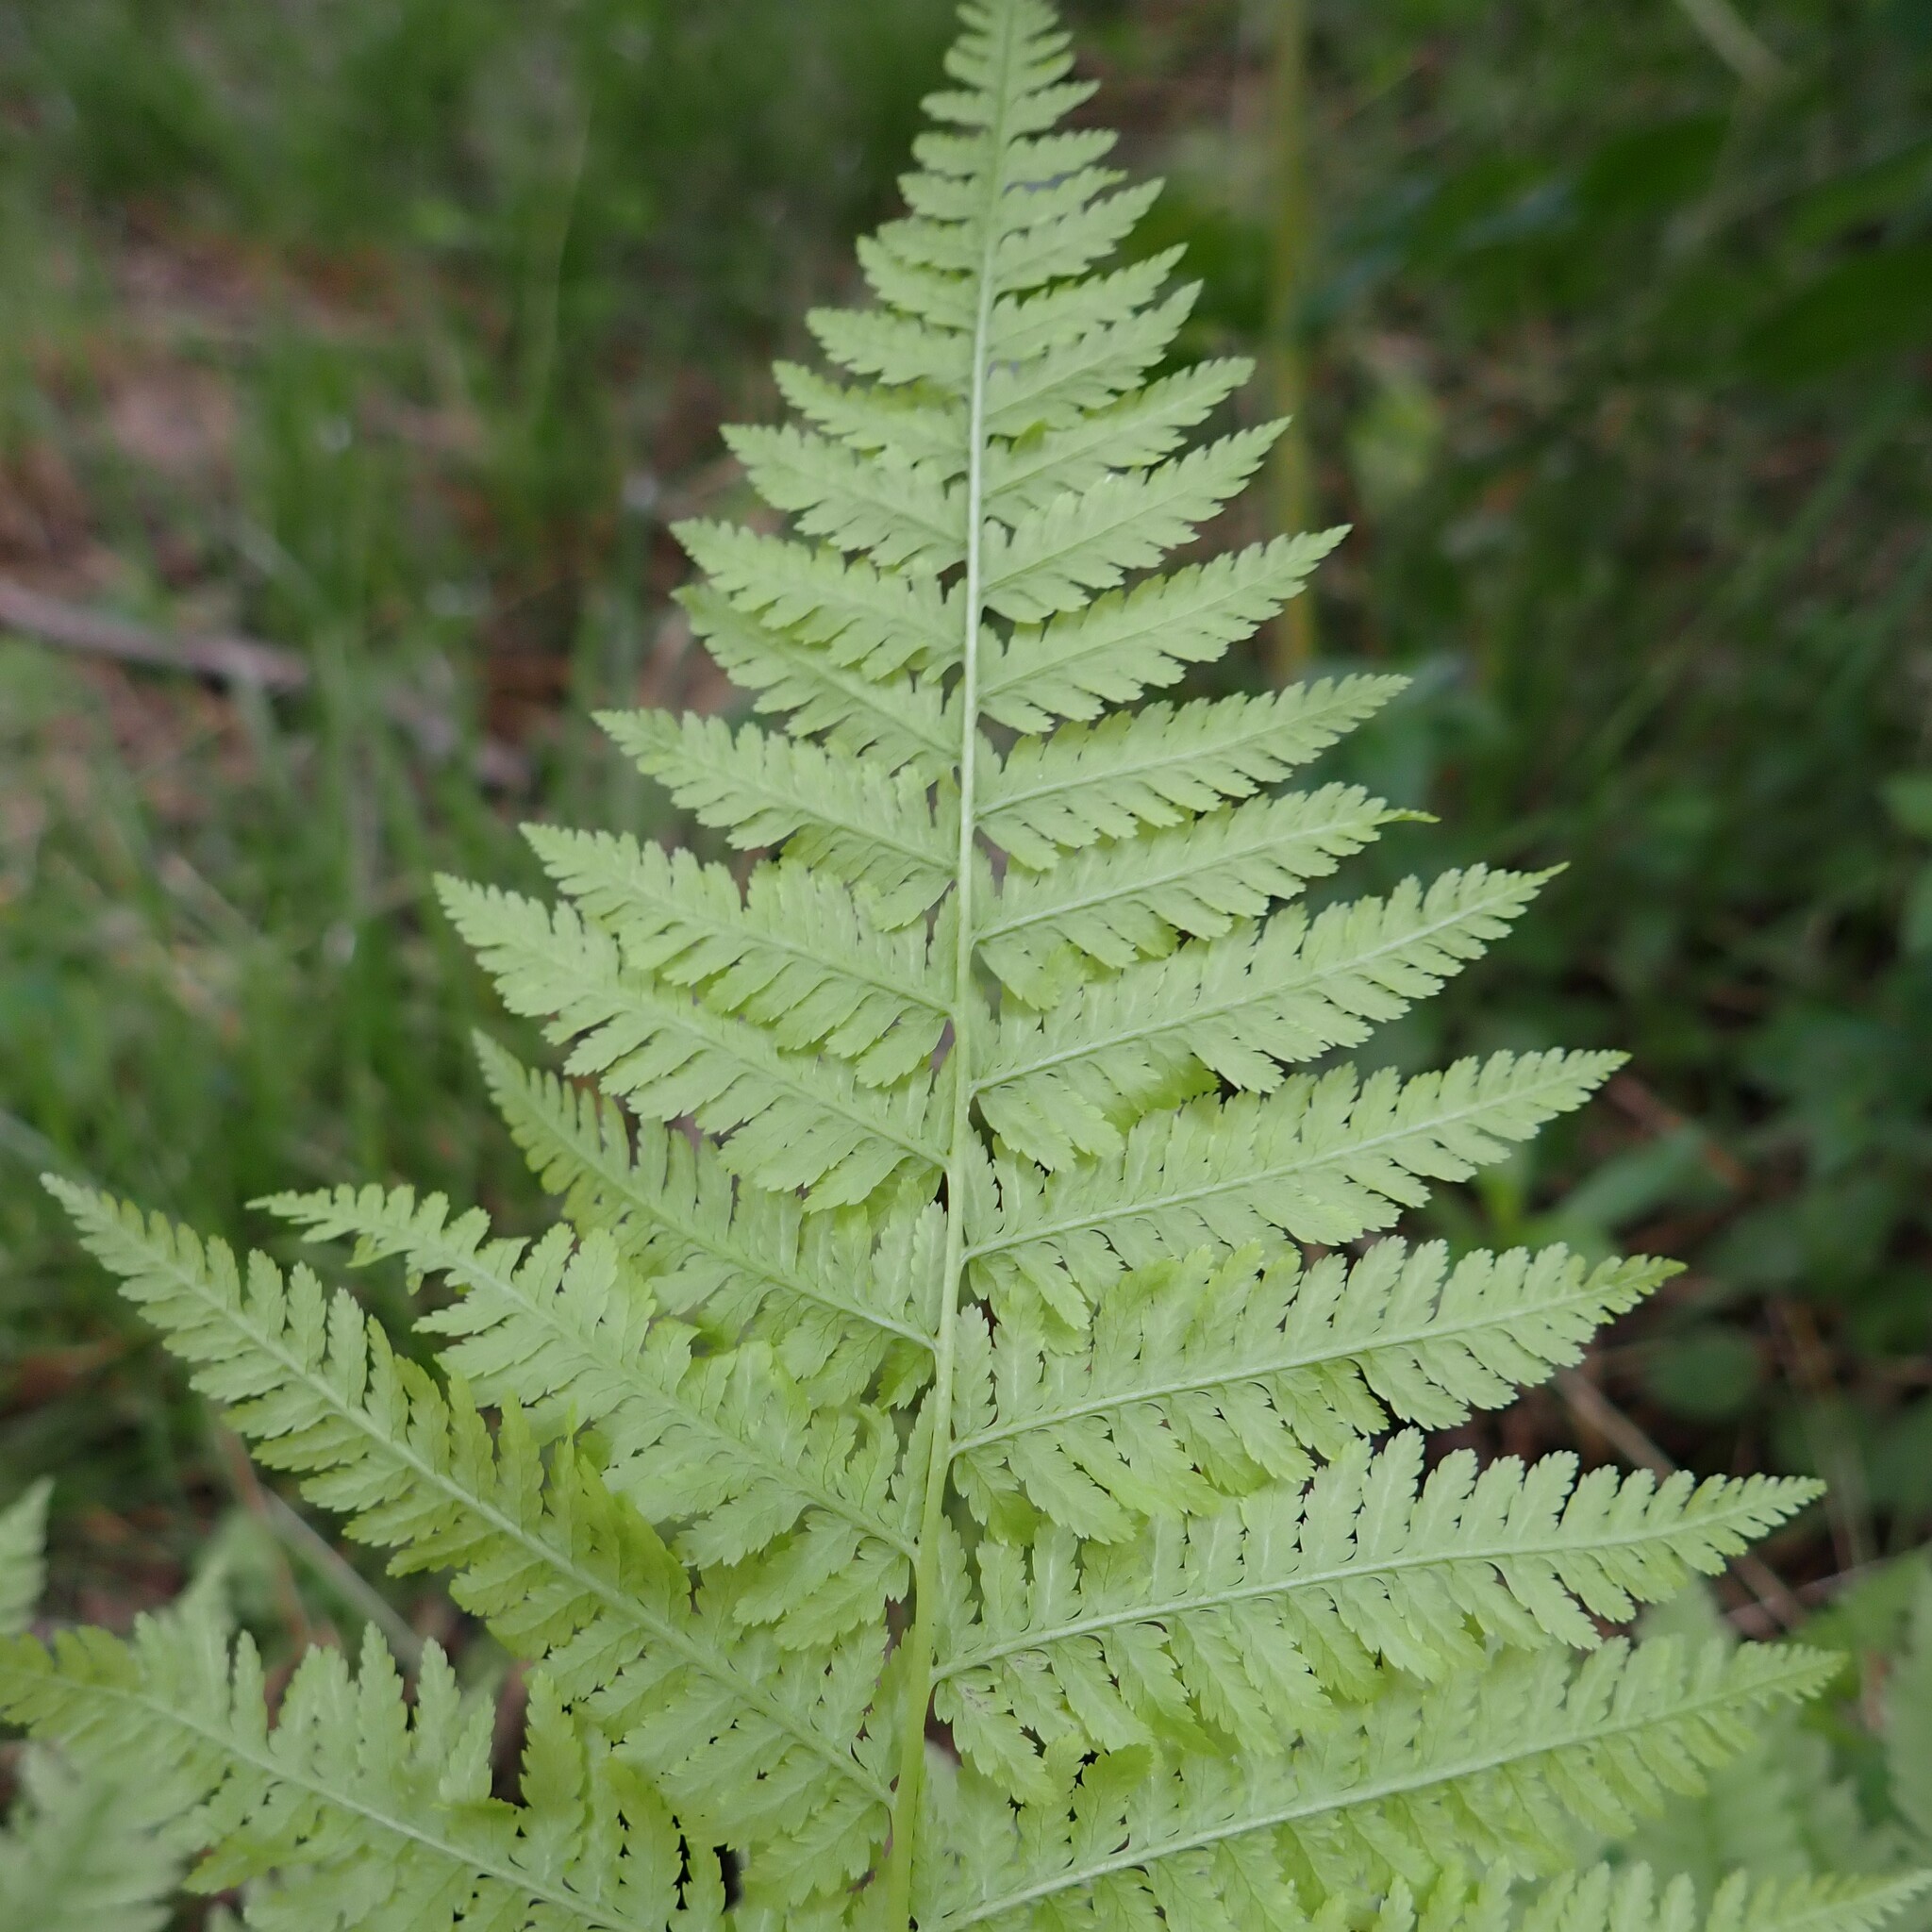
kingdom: Plantae
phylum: Tracheophyta
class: Polypodiopsida
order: Polypodiales
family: Athyriaceae
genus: Athyrium
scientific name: Athyrium angustum
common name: Northern lady fern
